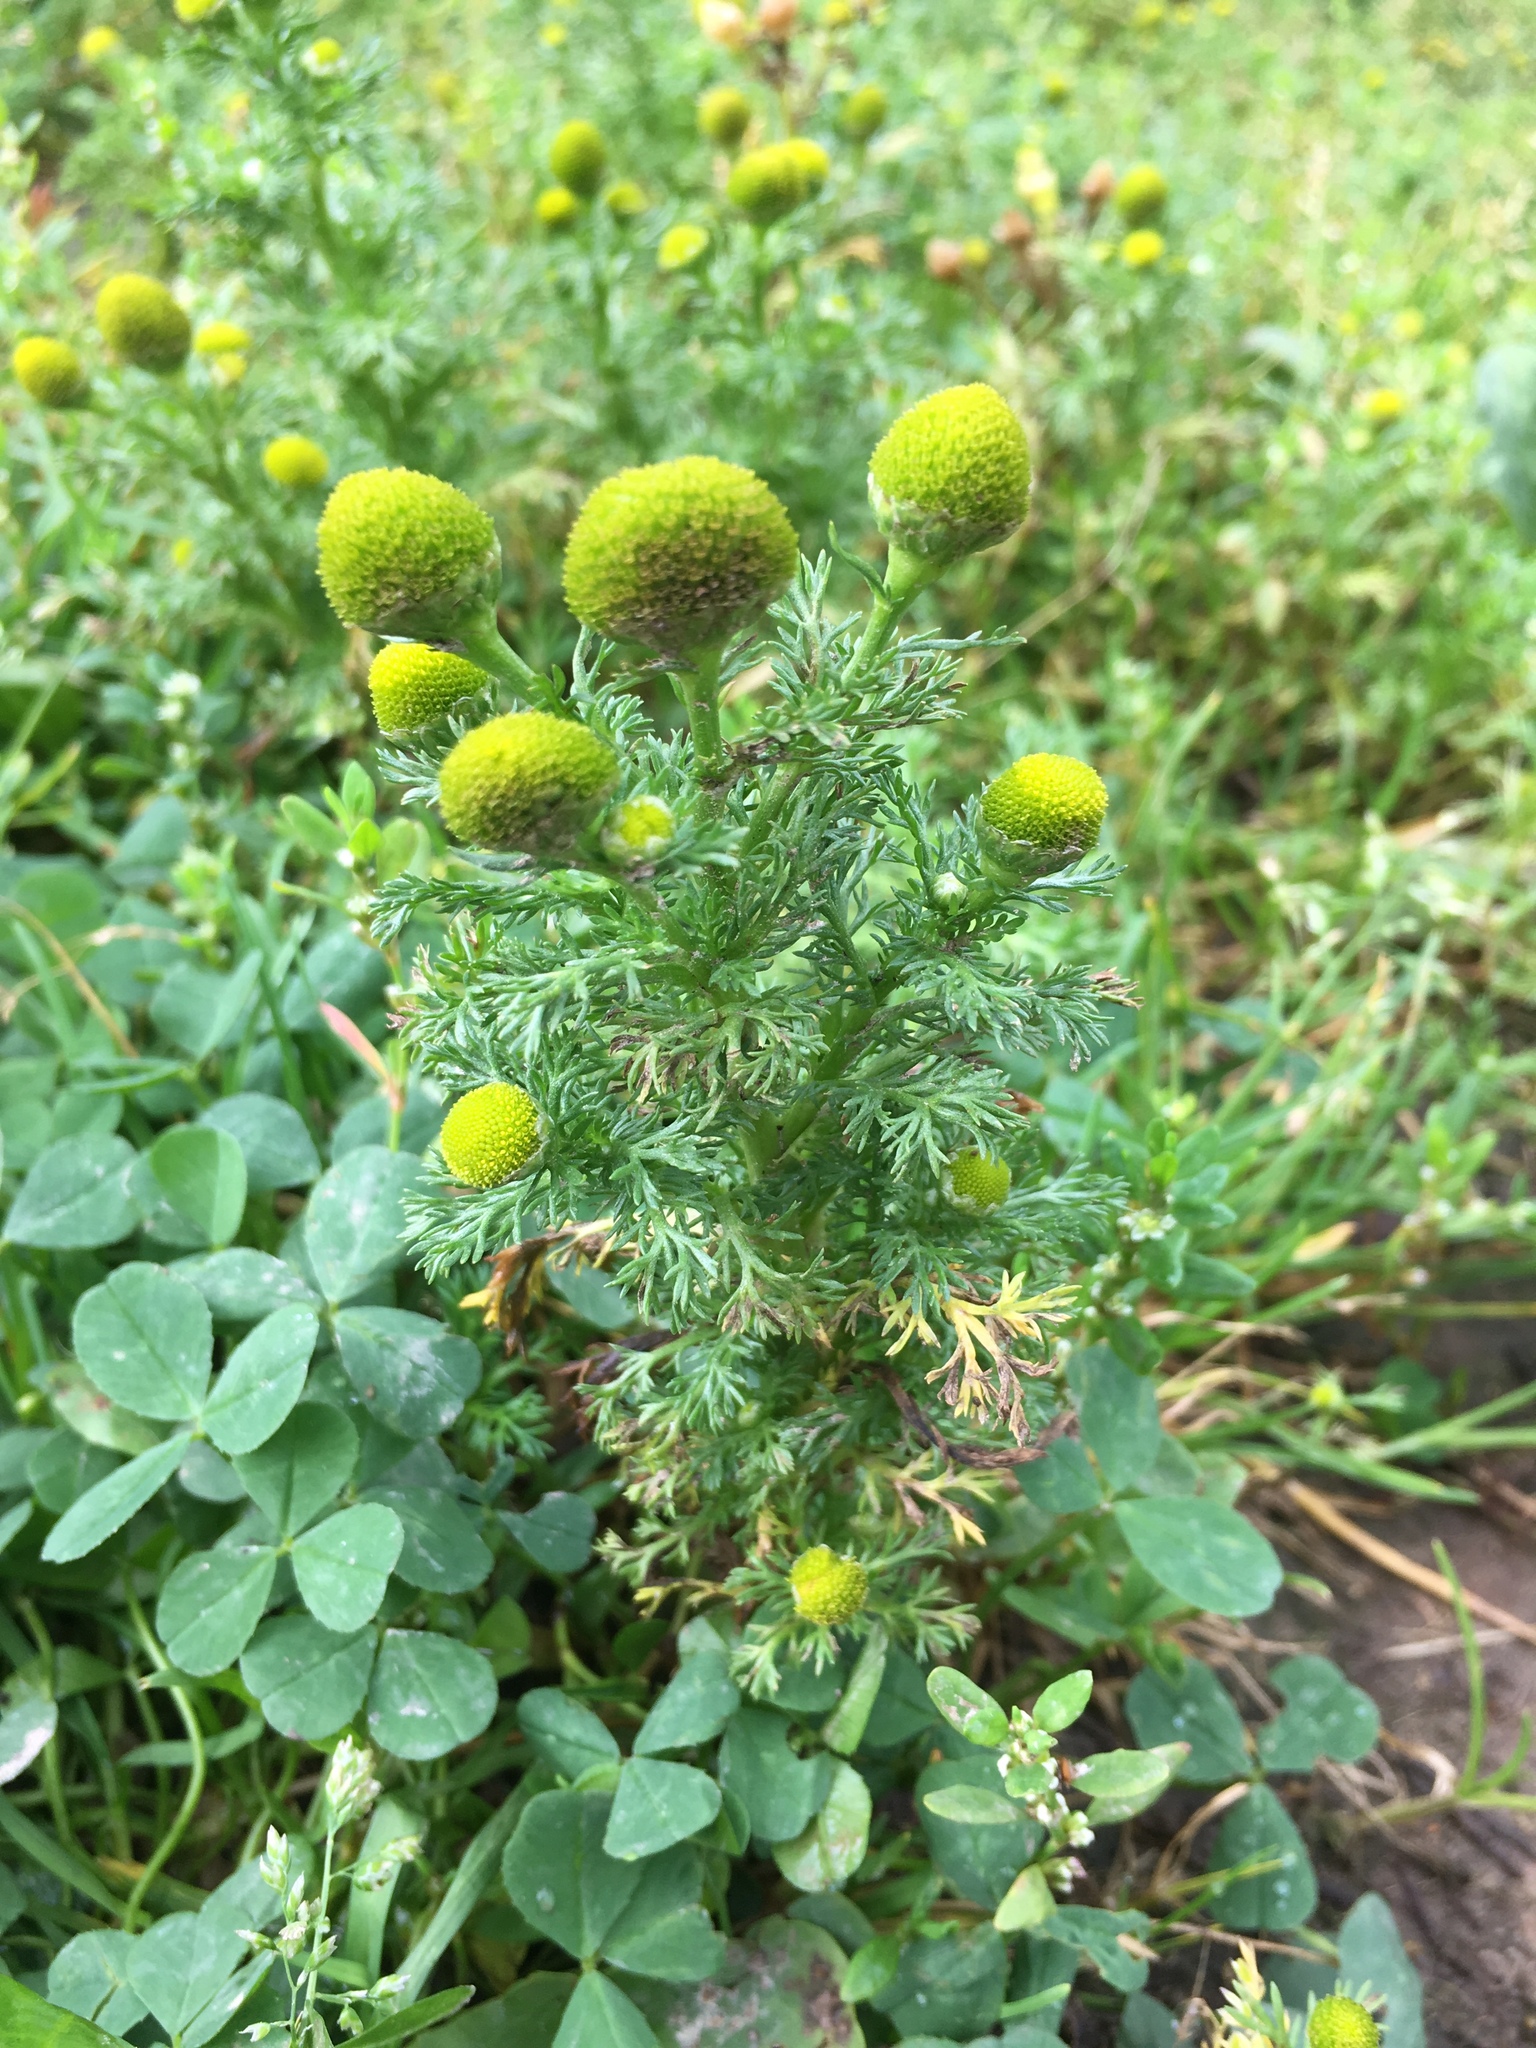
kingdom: Plantae
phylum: Tracheophyta
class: Magnoliopsida
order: Asterales
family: Asteraceae
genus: Matricaria
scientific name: Matricaria discoidea
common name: Disc mayweed
